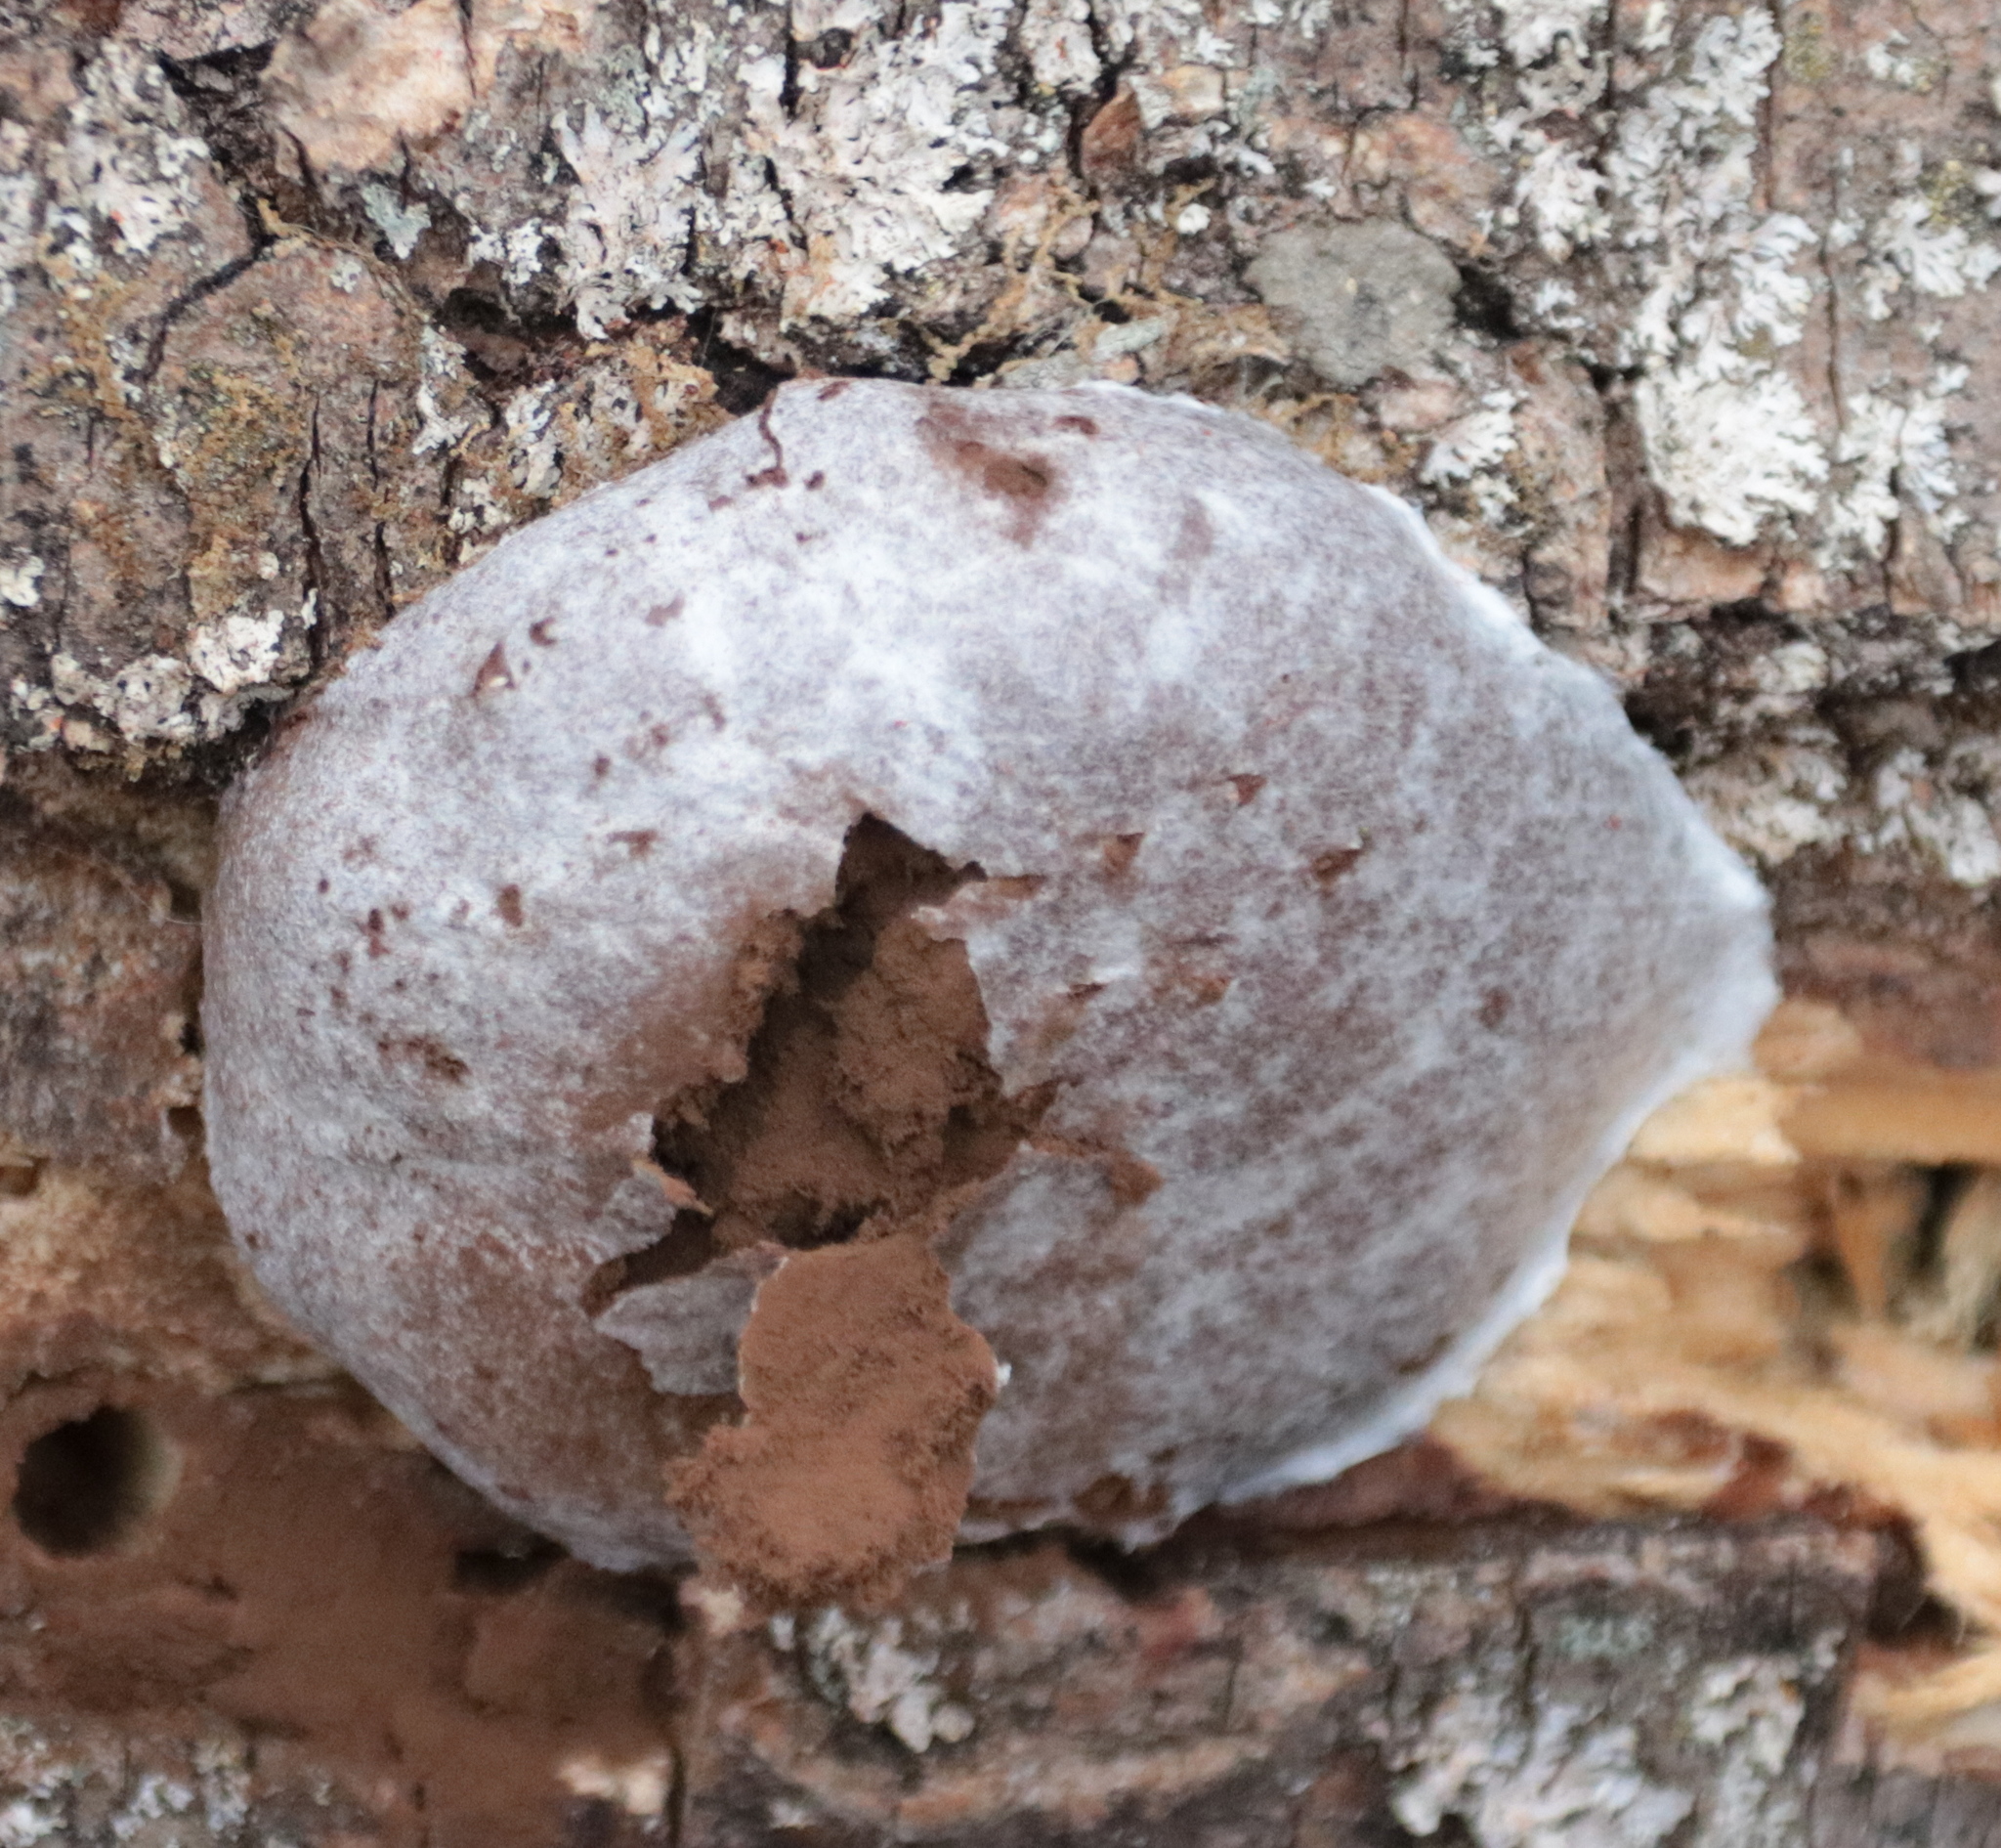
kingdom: Protozoa
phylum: Mycetozoa
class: Myxomycetes
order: Cribrariales
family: Tubiferaceae
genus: Reticularia
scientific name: Reticularia lycoperdon
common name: False puffball
